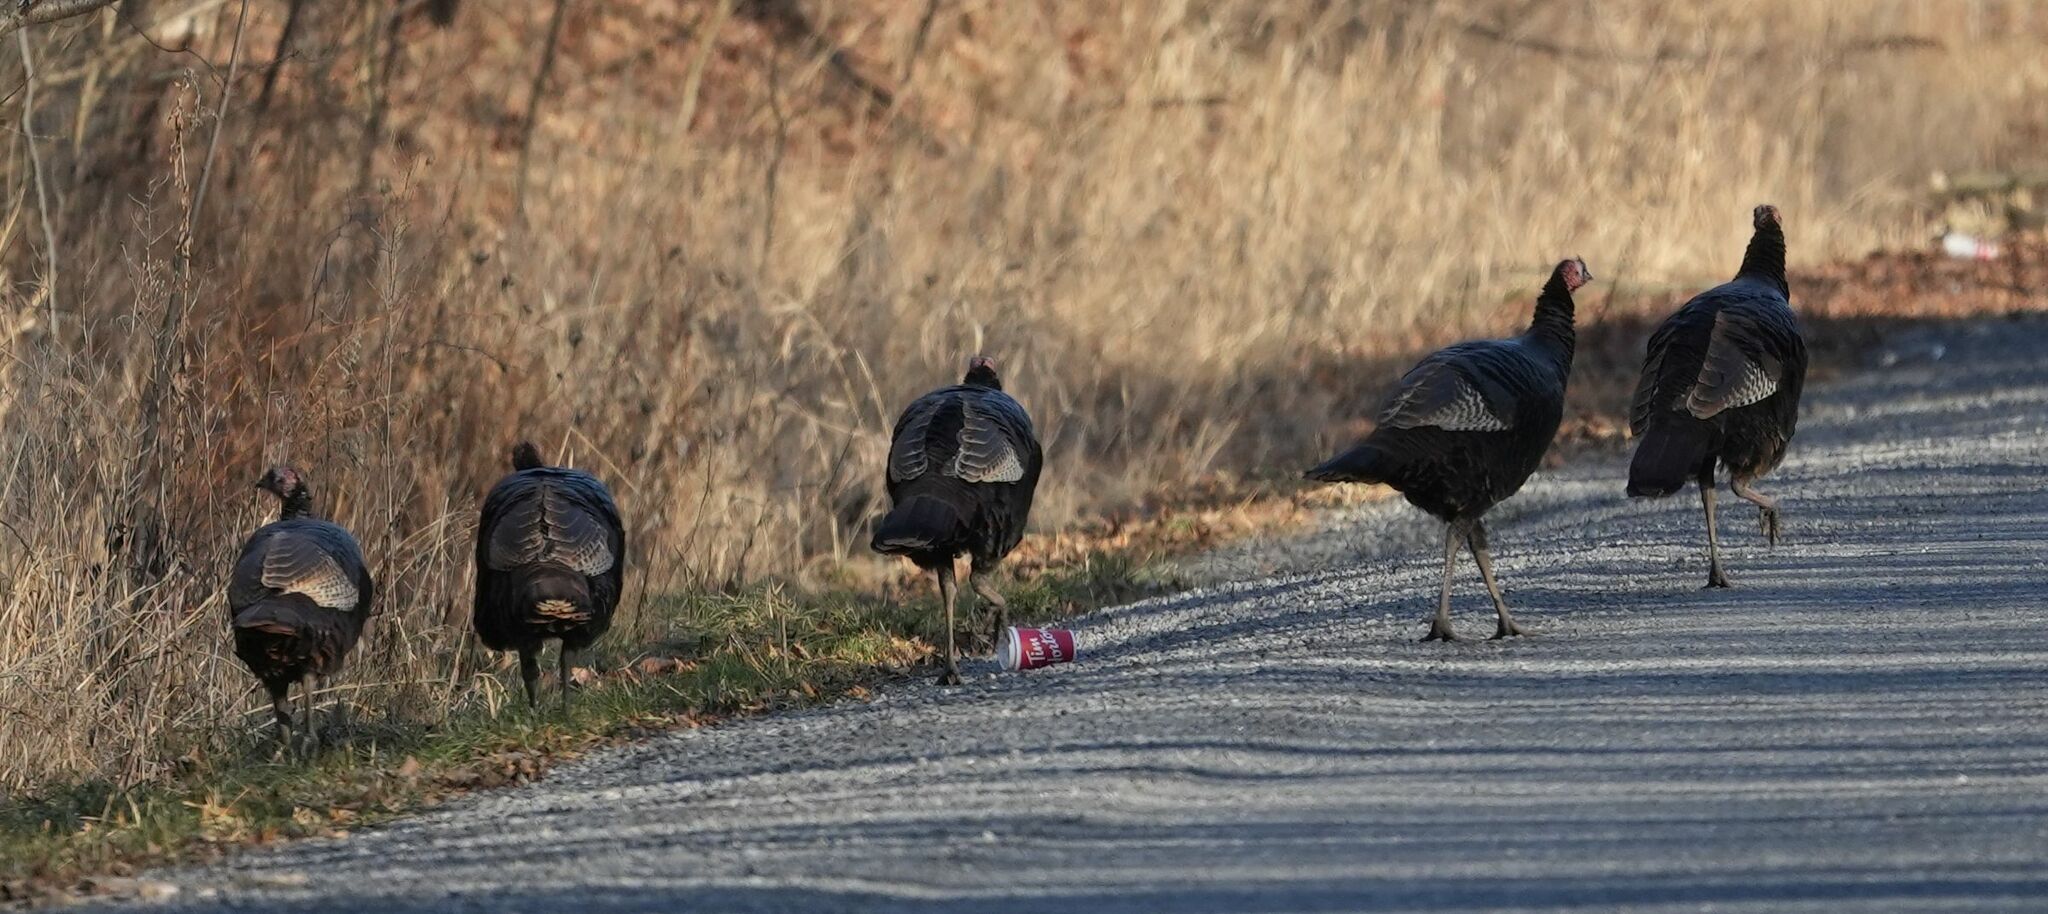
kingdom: Animalia
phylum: Chordata
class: Aves
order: Galliformes
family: Phasianidae
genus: Meleagris
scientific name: Meleagris gallopavo
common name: Wild turkey
